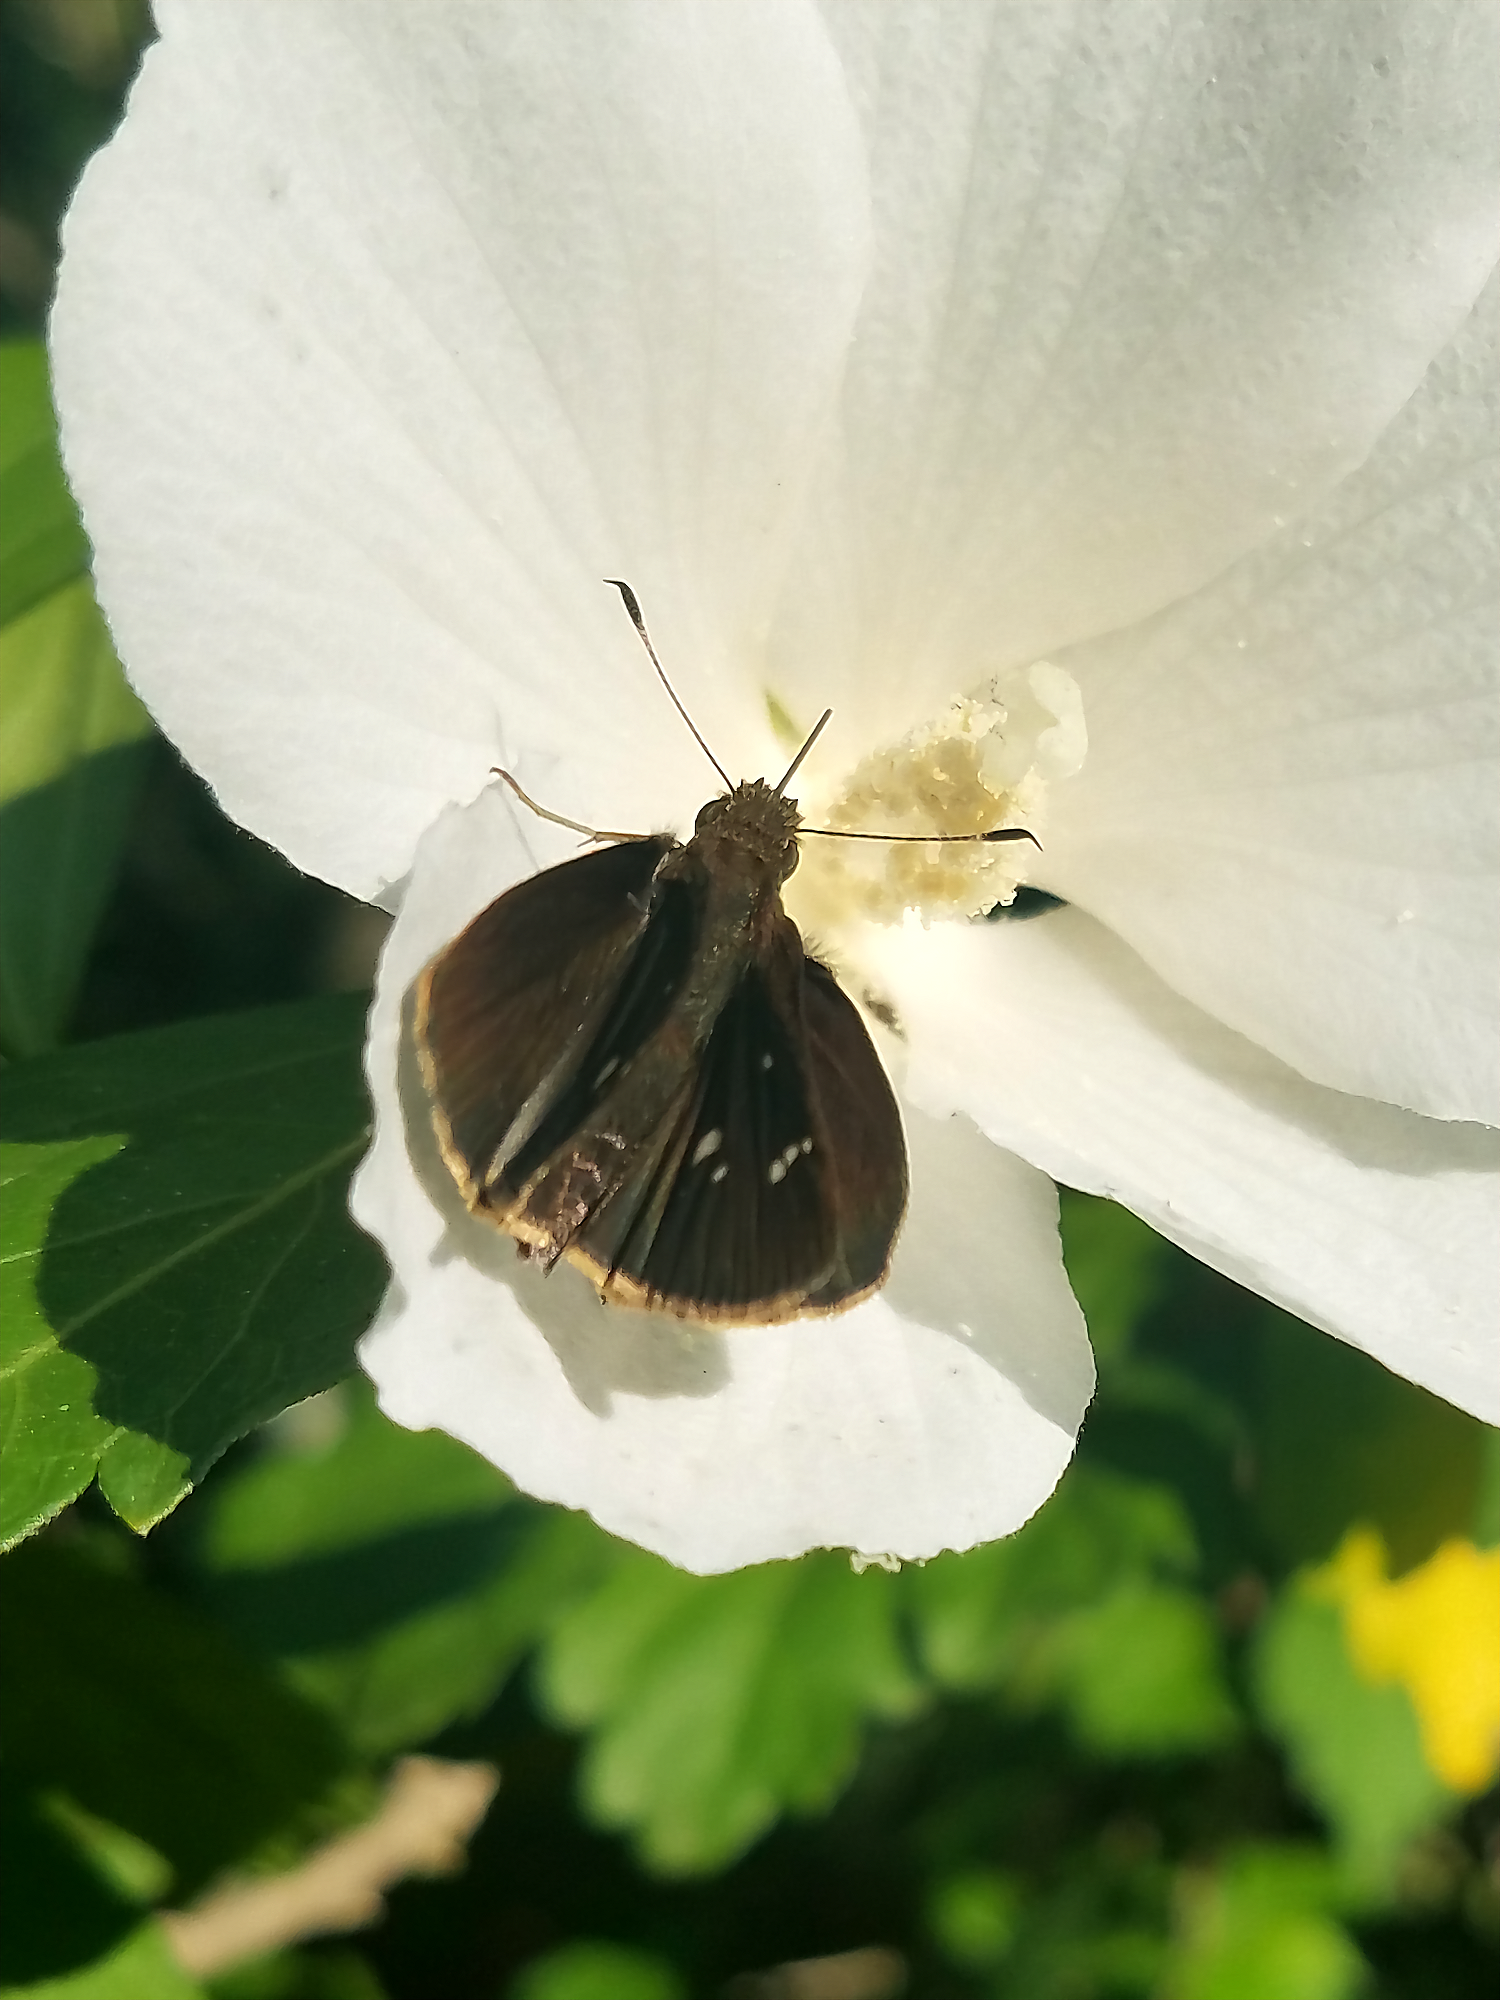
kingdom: Animalia
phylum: Arthropoda
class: Insecta
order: Lepidoptera
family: Hesperiidae
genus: Lerema
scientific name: Lerema accius
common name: Clouded skipper
